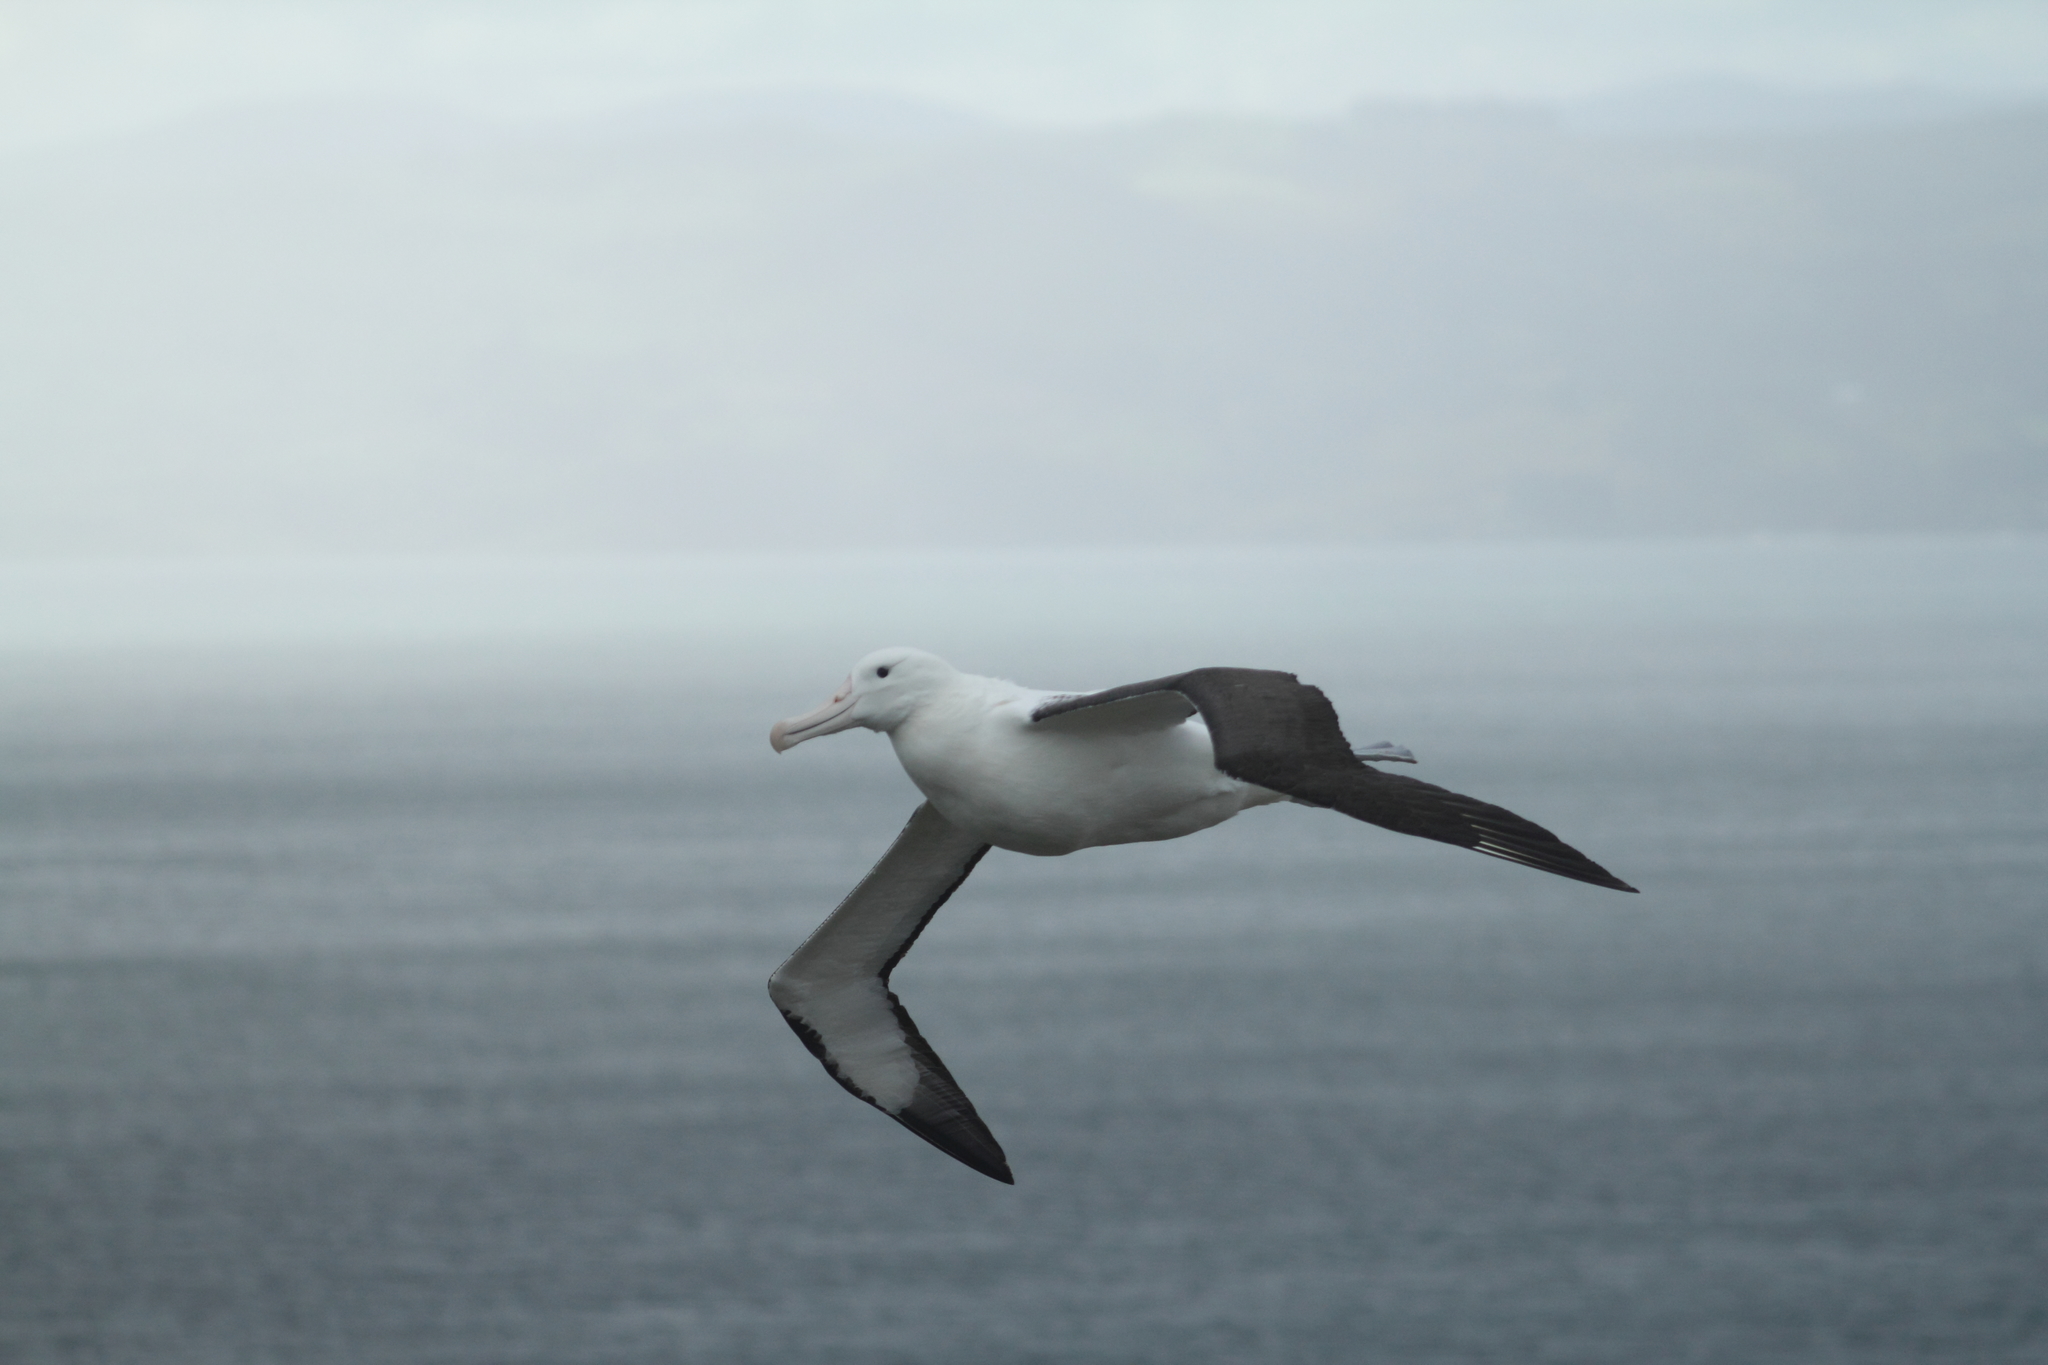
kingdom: Animalia
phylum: Chordata
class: Aves
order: Procellariiformes
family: Diomedeidae
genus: Diomedea
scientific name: Diomedea sanfordi
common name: Northern royal albatross
